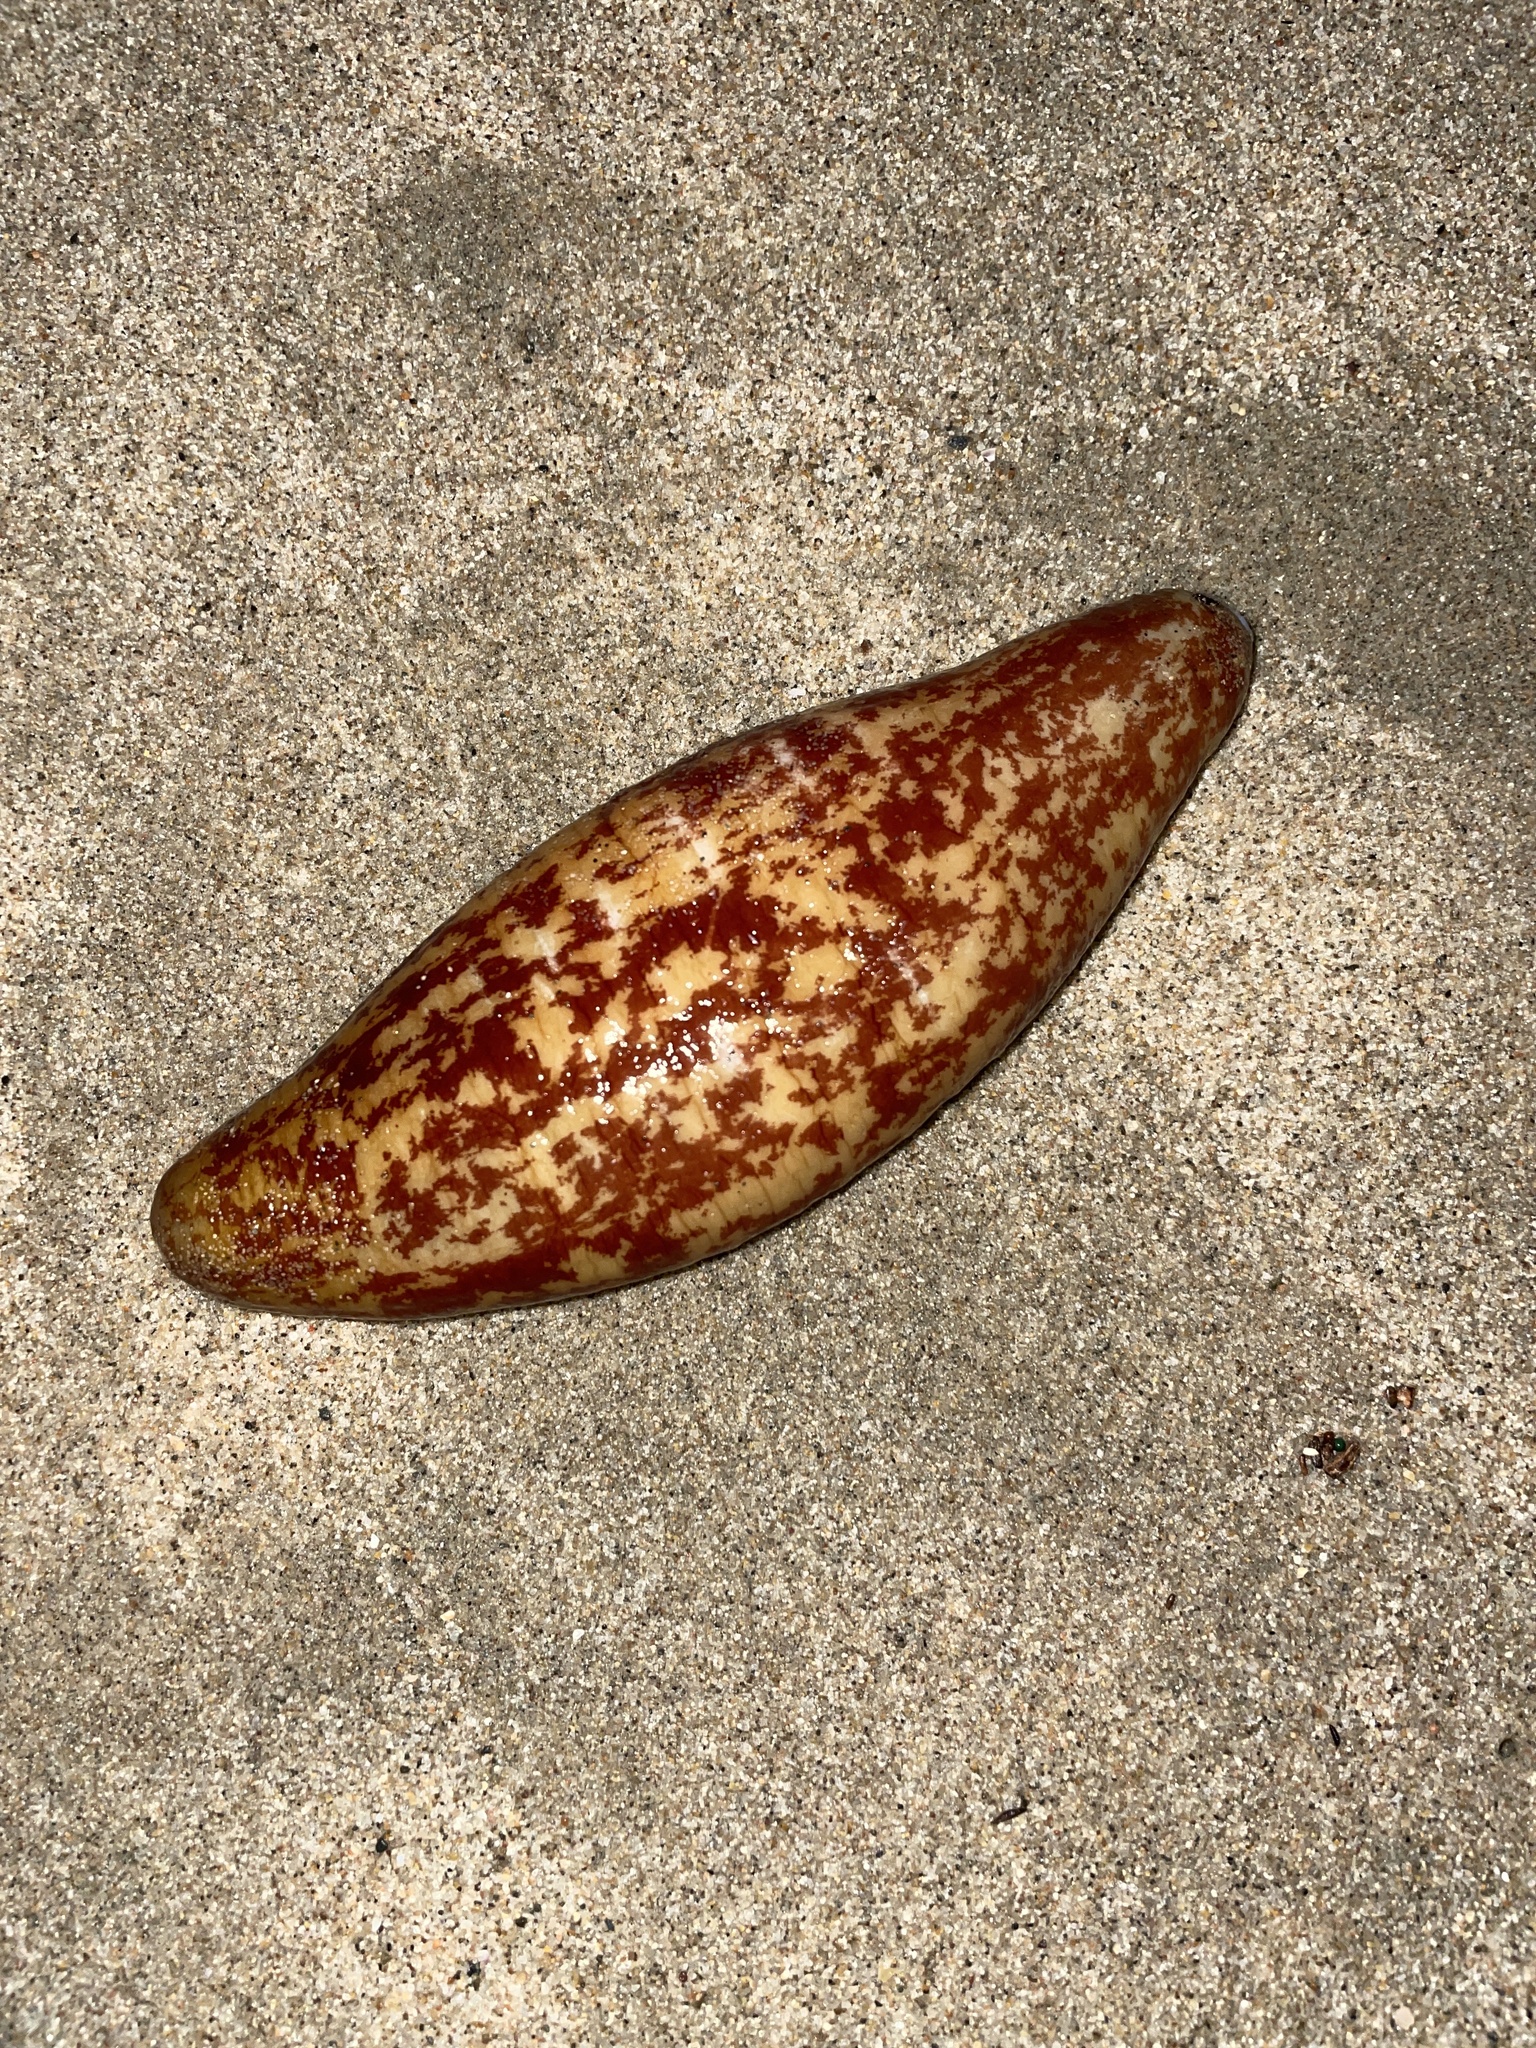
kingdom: Animalia
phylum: Echinodermata
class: Holothuroidea
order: Molpadida
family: Caudinidae
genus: Caudina
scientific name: Caudina arenicola
